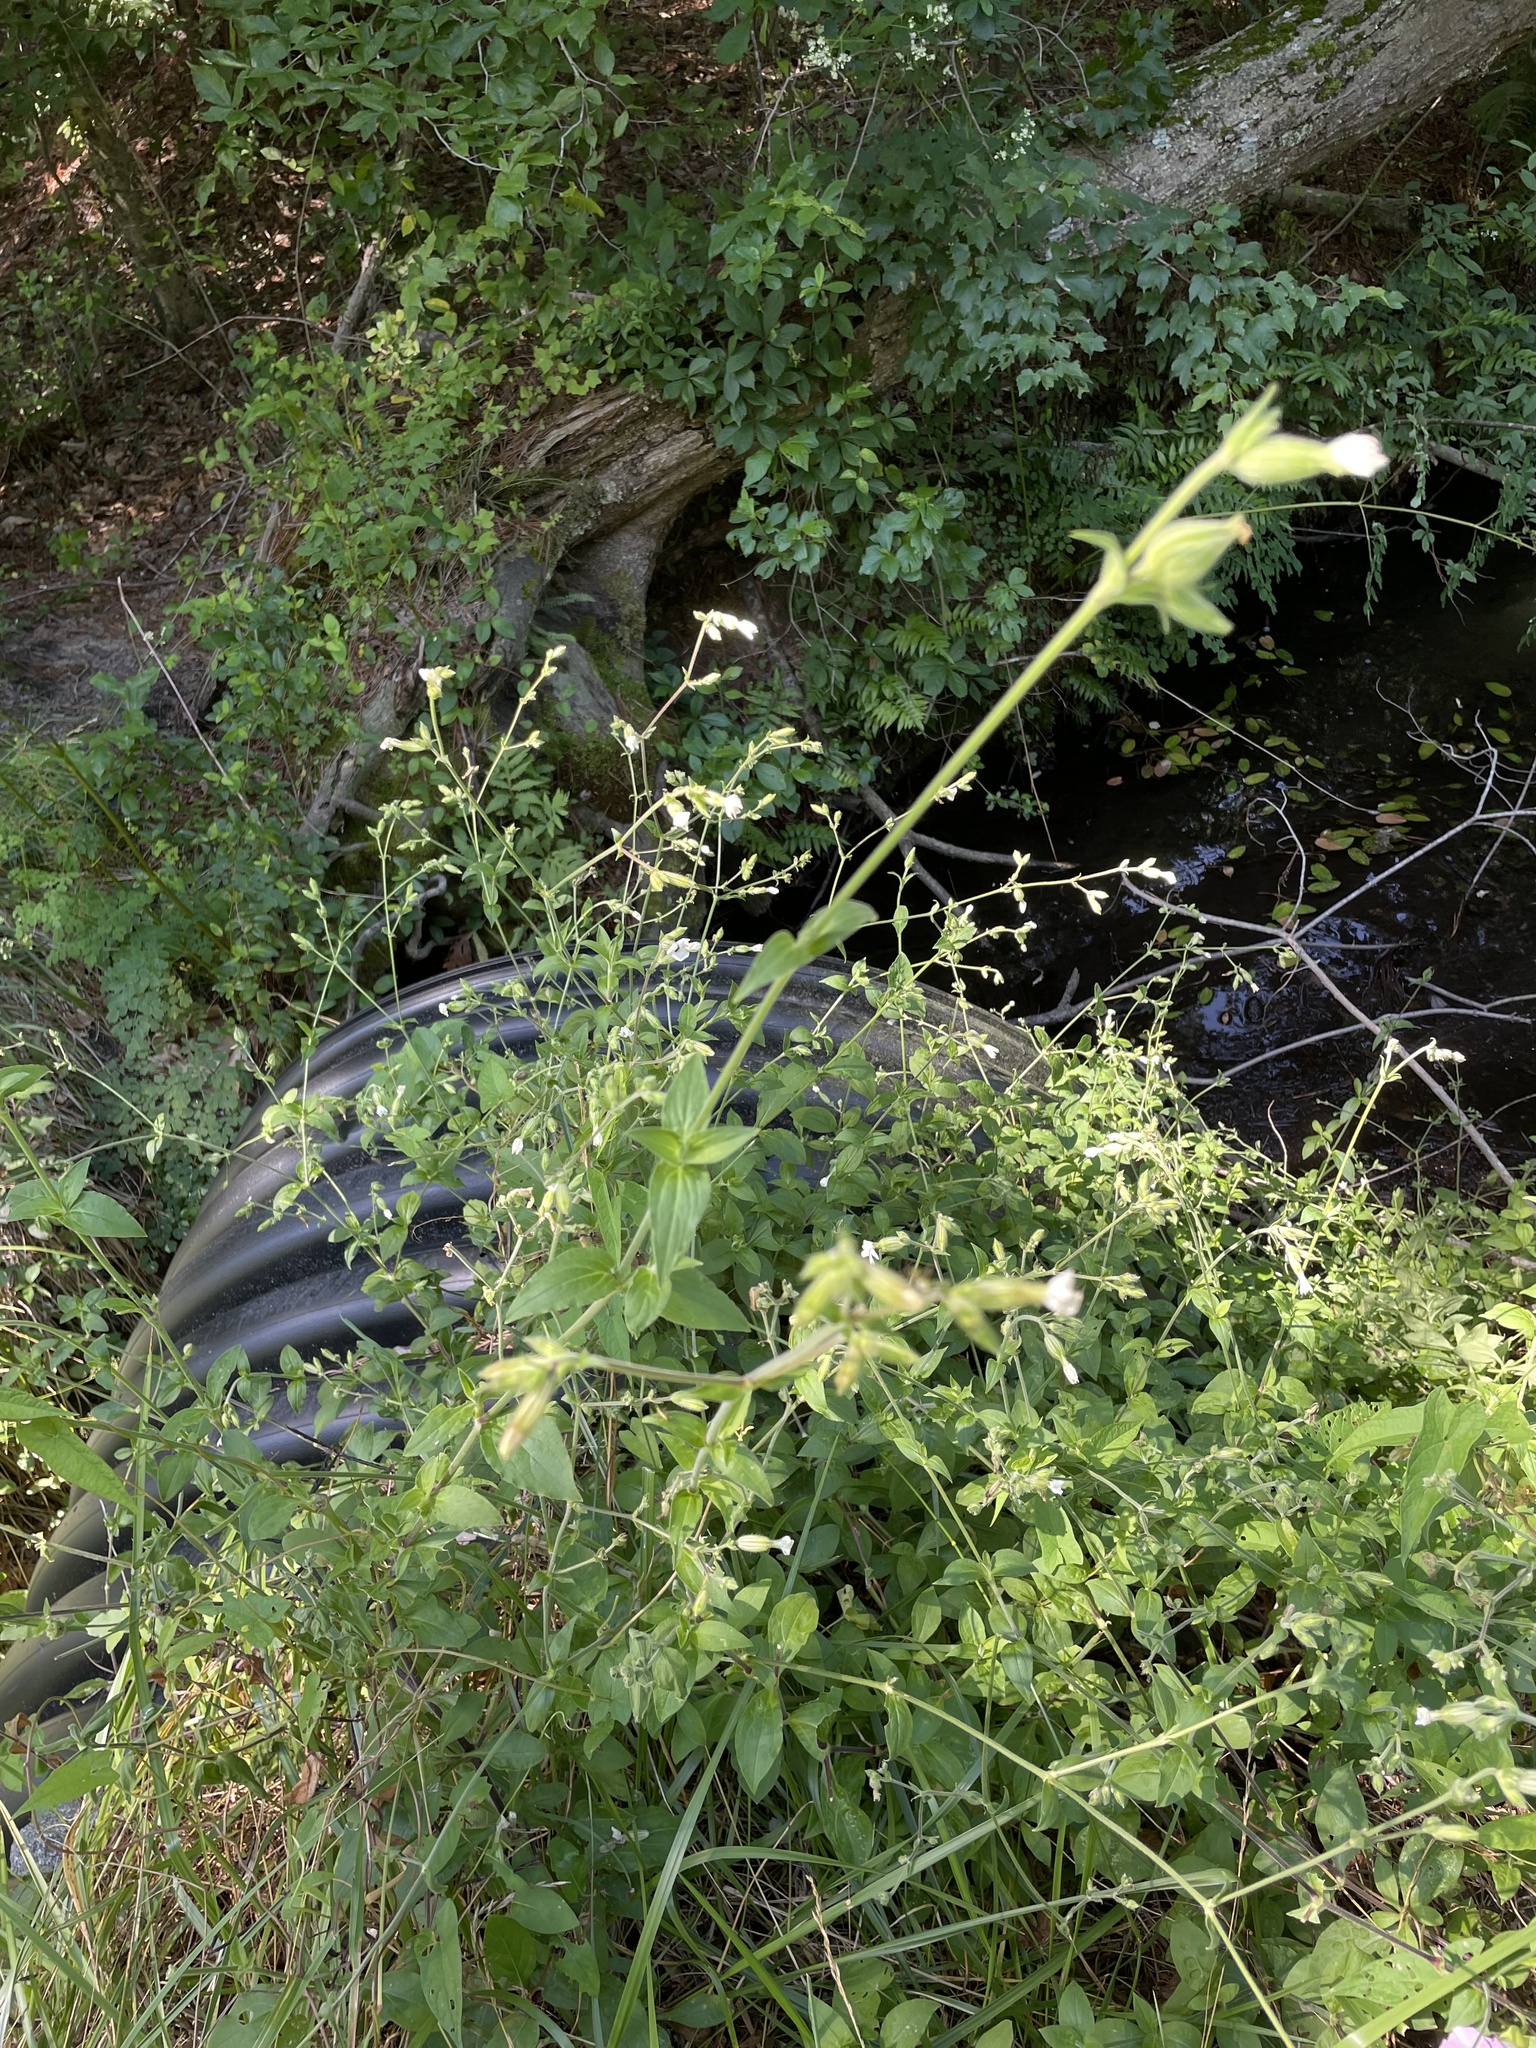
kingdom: Plantae
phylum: Tracheophyta
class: Magnoliopsida
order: Caryophyllales
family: Caryophyllaceae
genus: Silene
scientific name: Silene latifolia
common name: White campion
